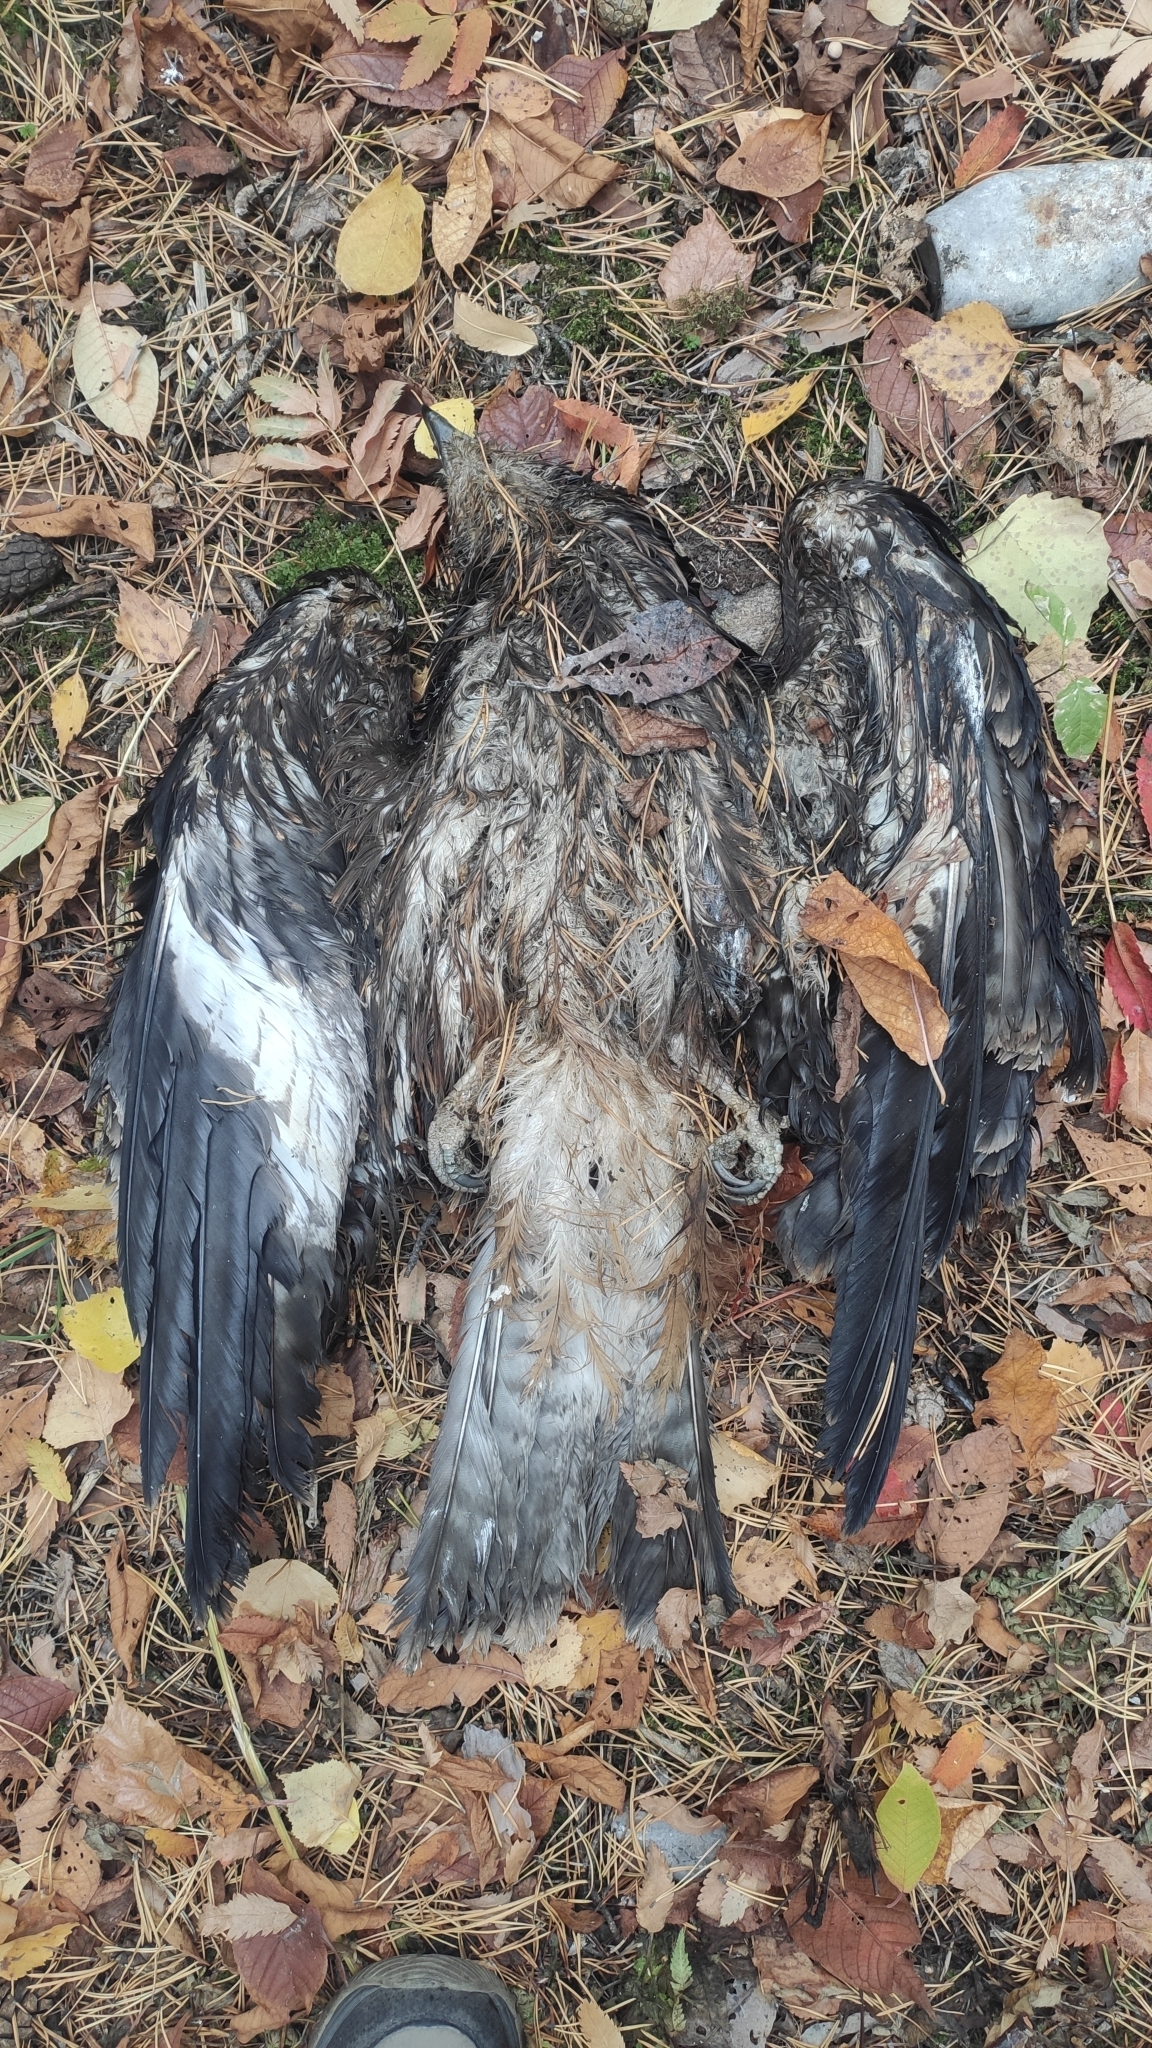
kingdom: Animalia
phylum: Chordata
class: Aves
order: Accipitriformes
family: Accipitridae
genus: Milvus
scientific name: Milvus migrans
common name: Black kite
